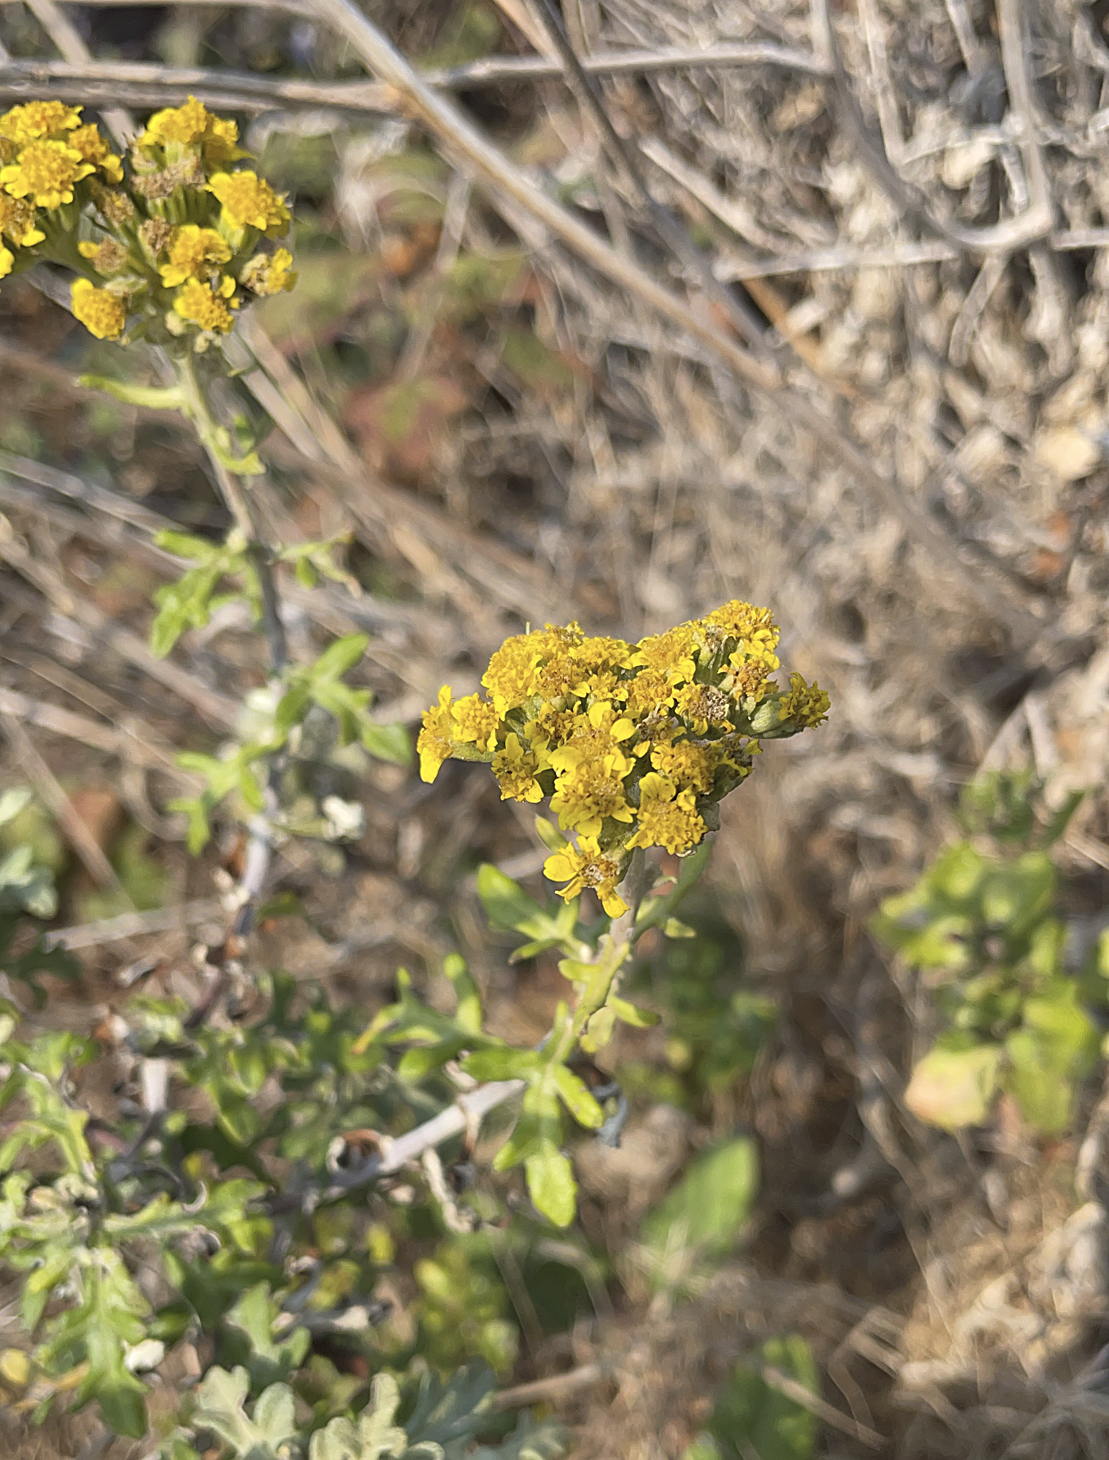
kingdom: Plantae
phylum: Tracheophyta
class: Magnoliopsida
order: Asterales
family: Asteraceae
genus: Eriophyllum
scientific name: Eriophyllum staechadifolium
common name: Lizardtail
